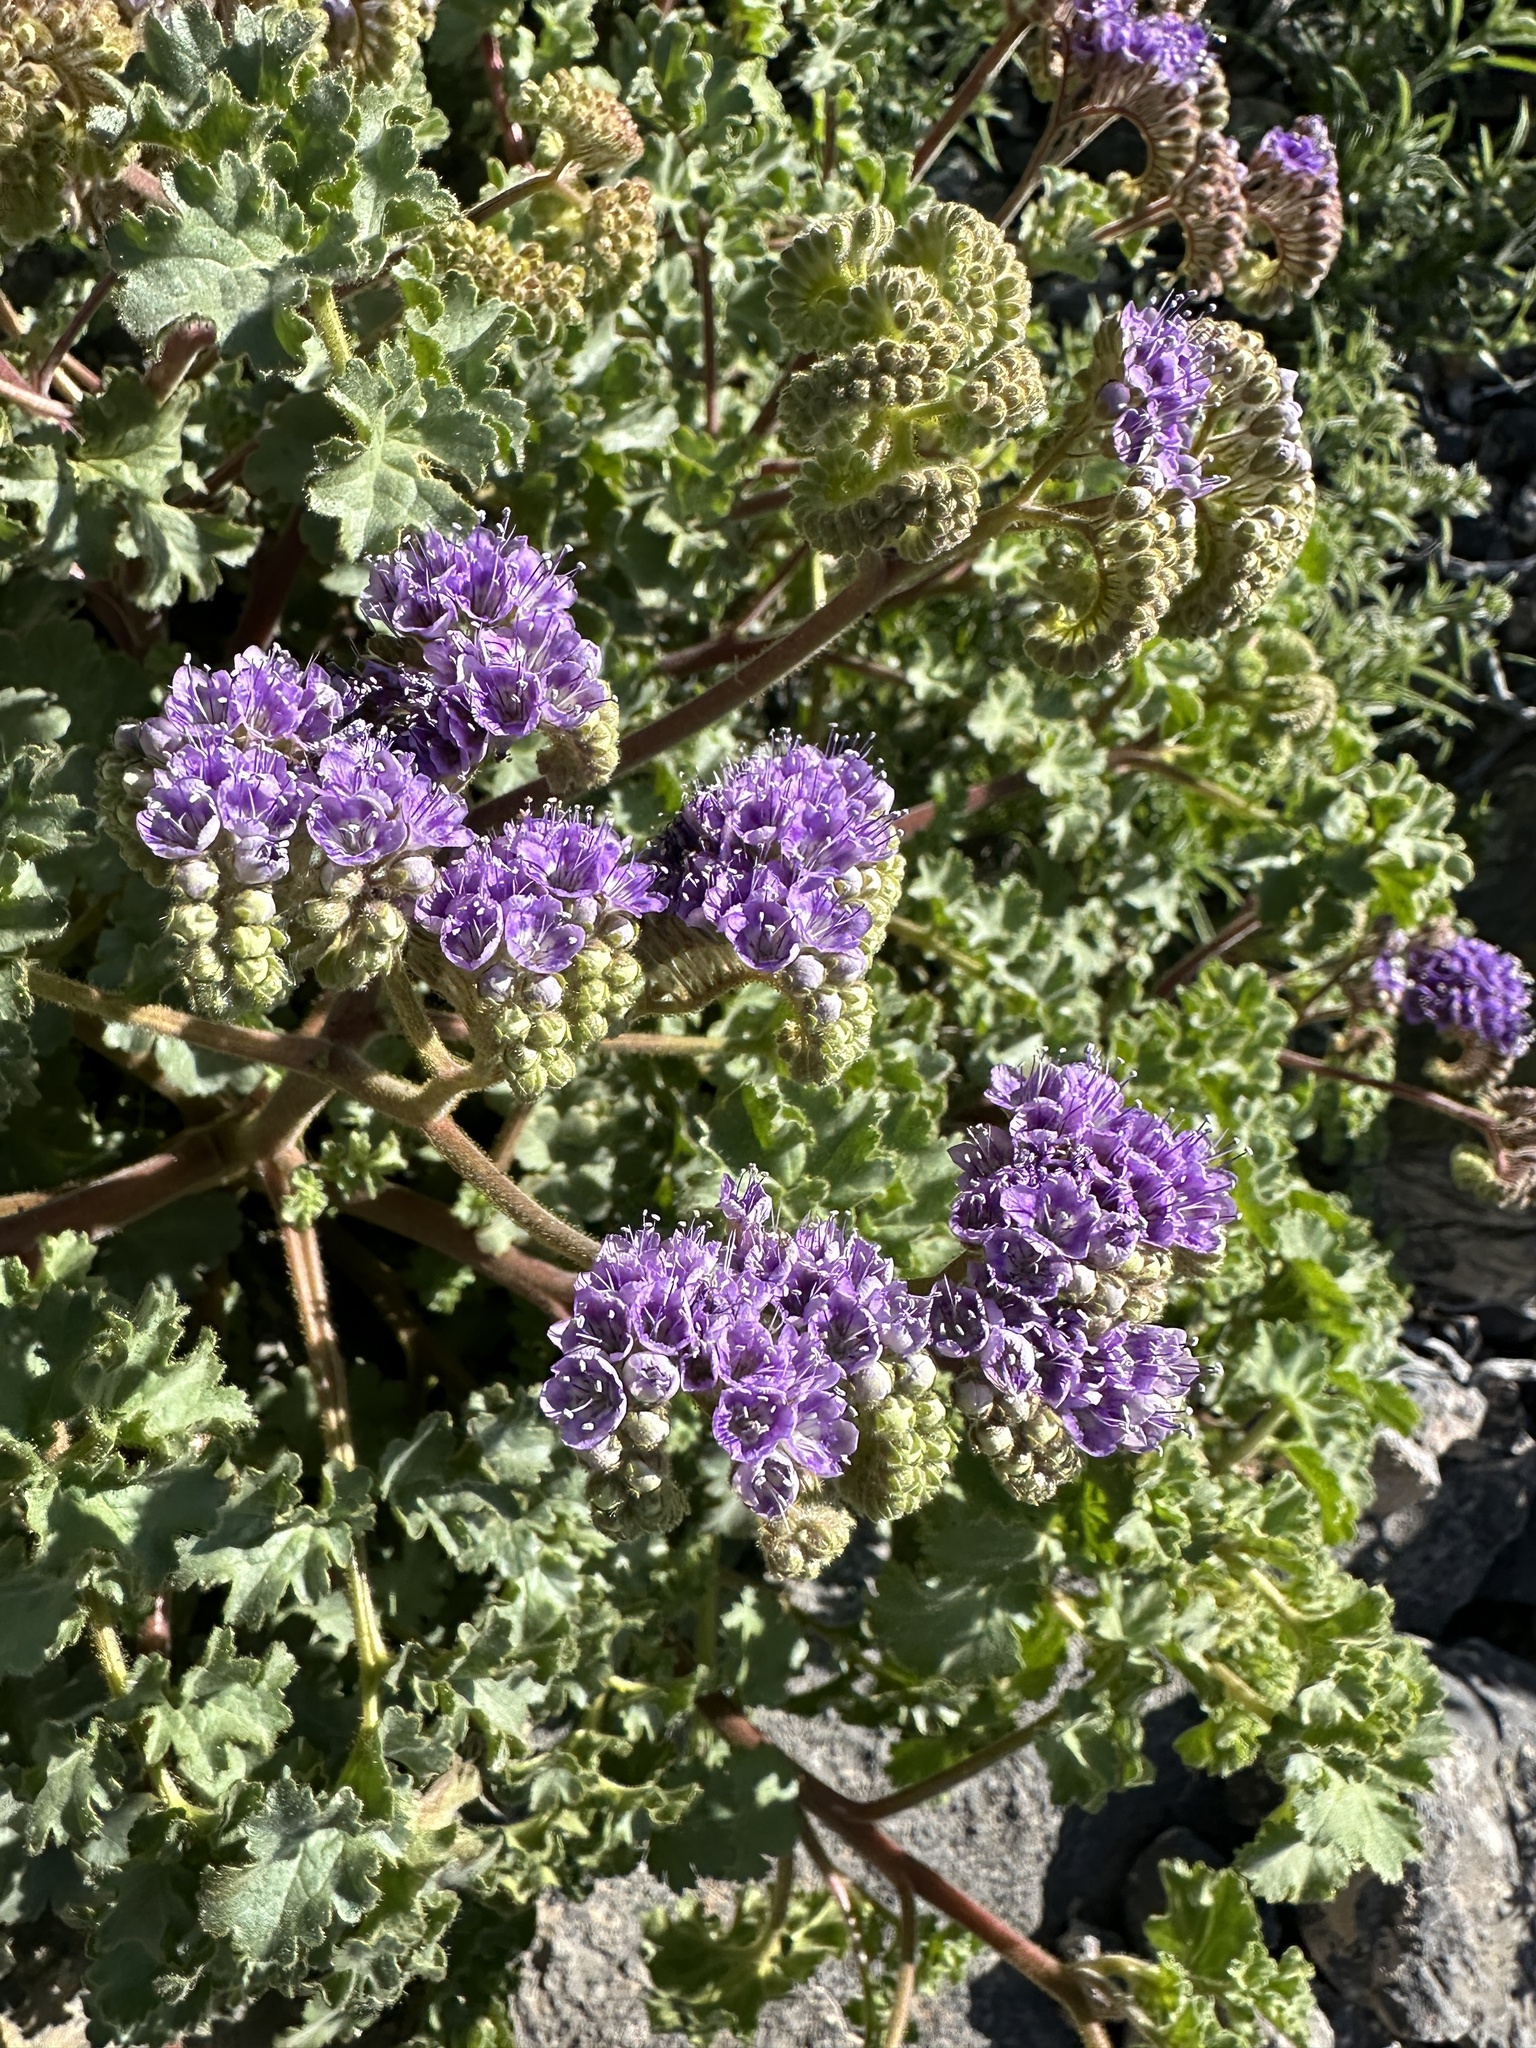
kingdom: Plantae
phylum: Tracheophyta
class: Magnoliopsida
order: Boraginales
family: Hydrophyllaceae
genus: Phacelia
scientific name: Phacelia pedicellata
